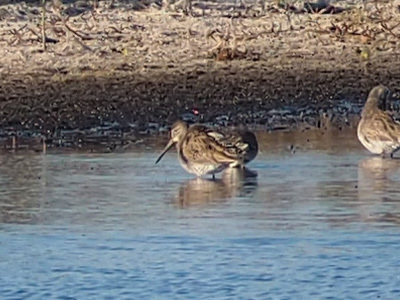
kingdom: Animalia
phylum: Chordata
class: Aves
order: Charadriiformes
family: Scolopacidae
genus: Limnodromus
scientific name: Limnodromus
